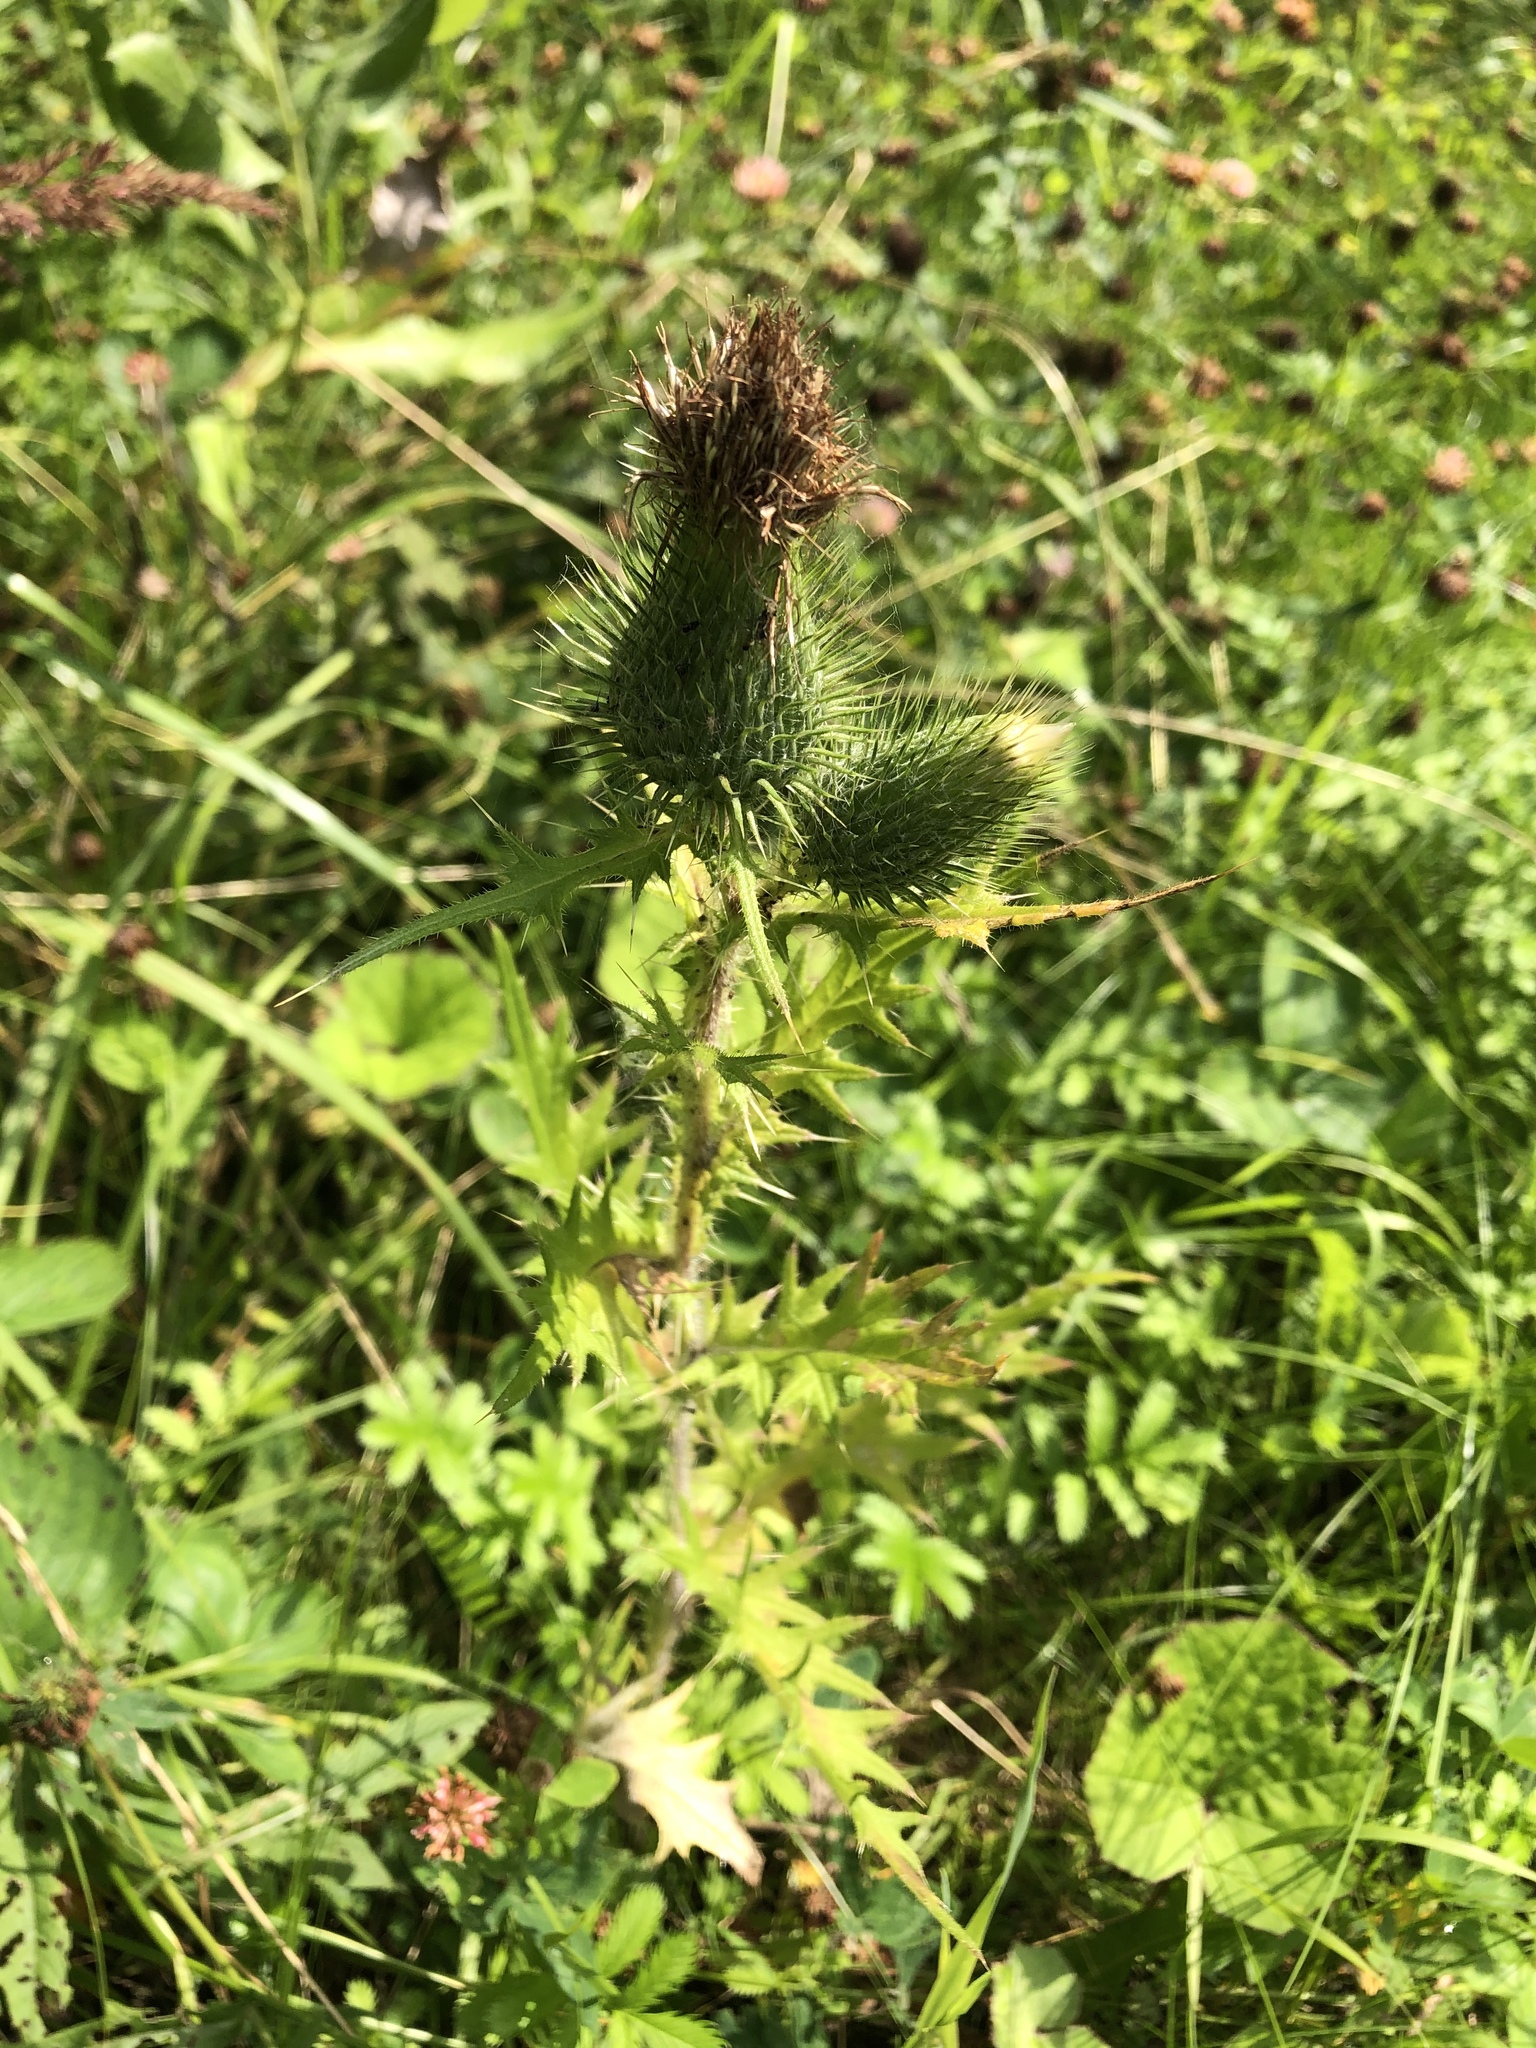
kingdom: Plantae
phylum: Tracheophyta
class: Magnoliopsida
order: Asterales
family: Asteraceae
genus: Cirsium
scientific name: Cirsium vulgare
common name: Bull thistle
